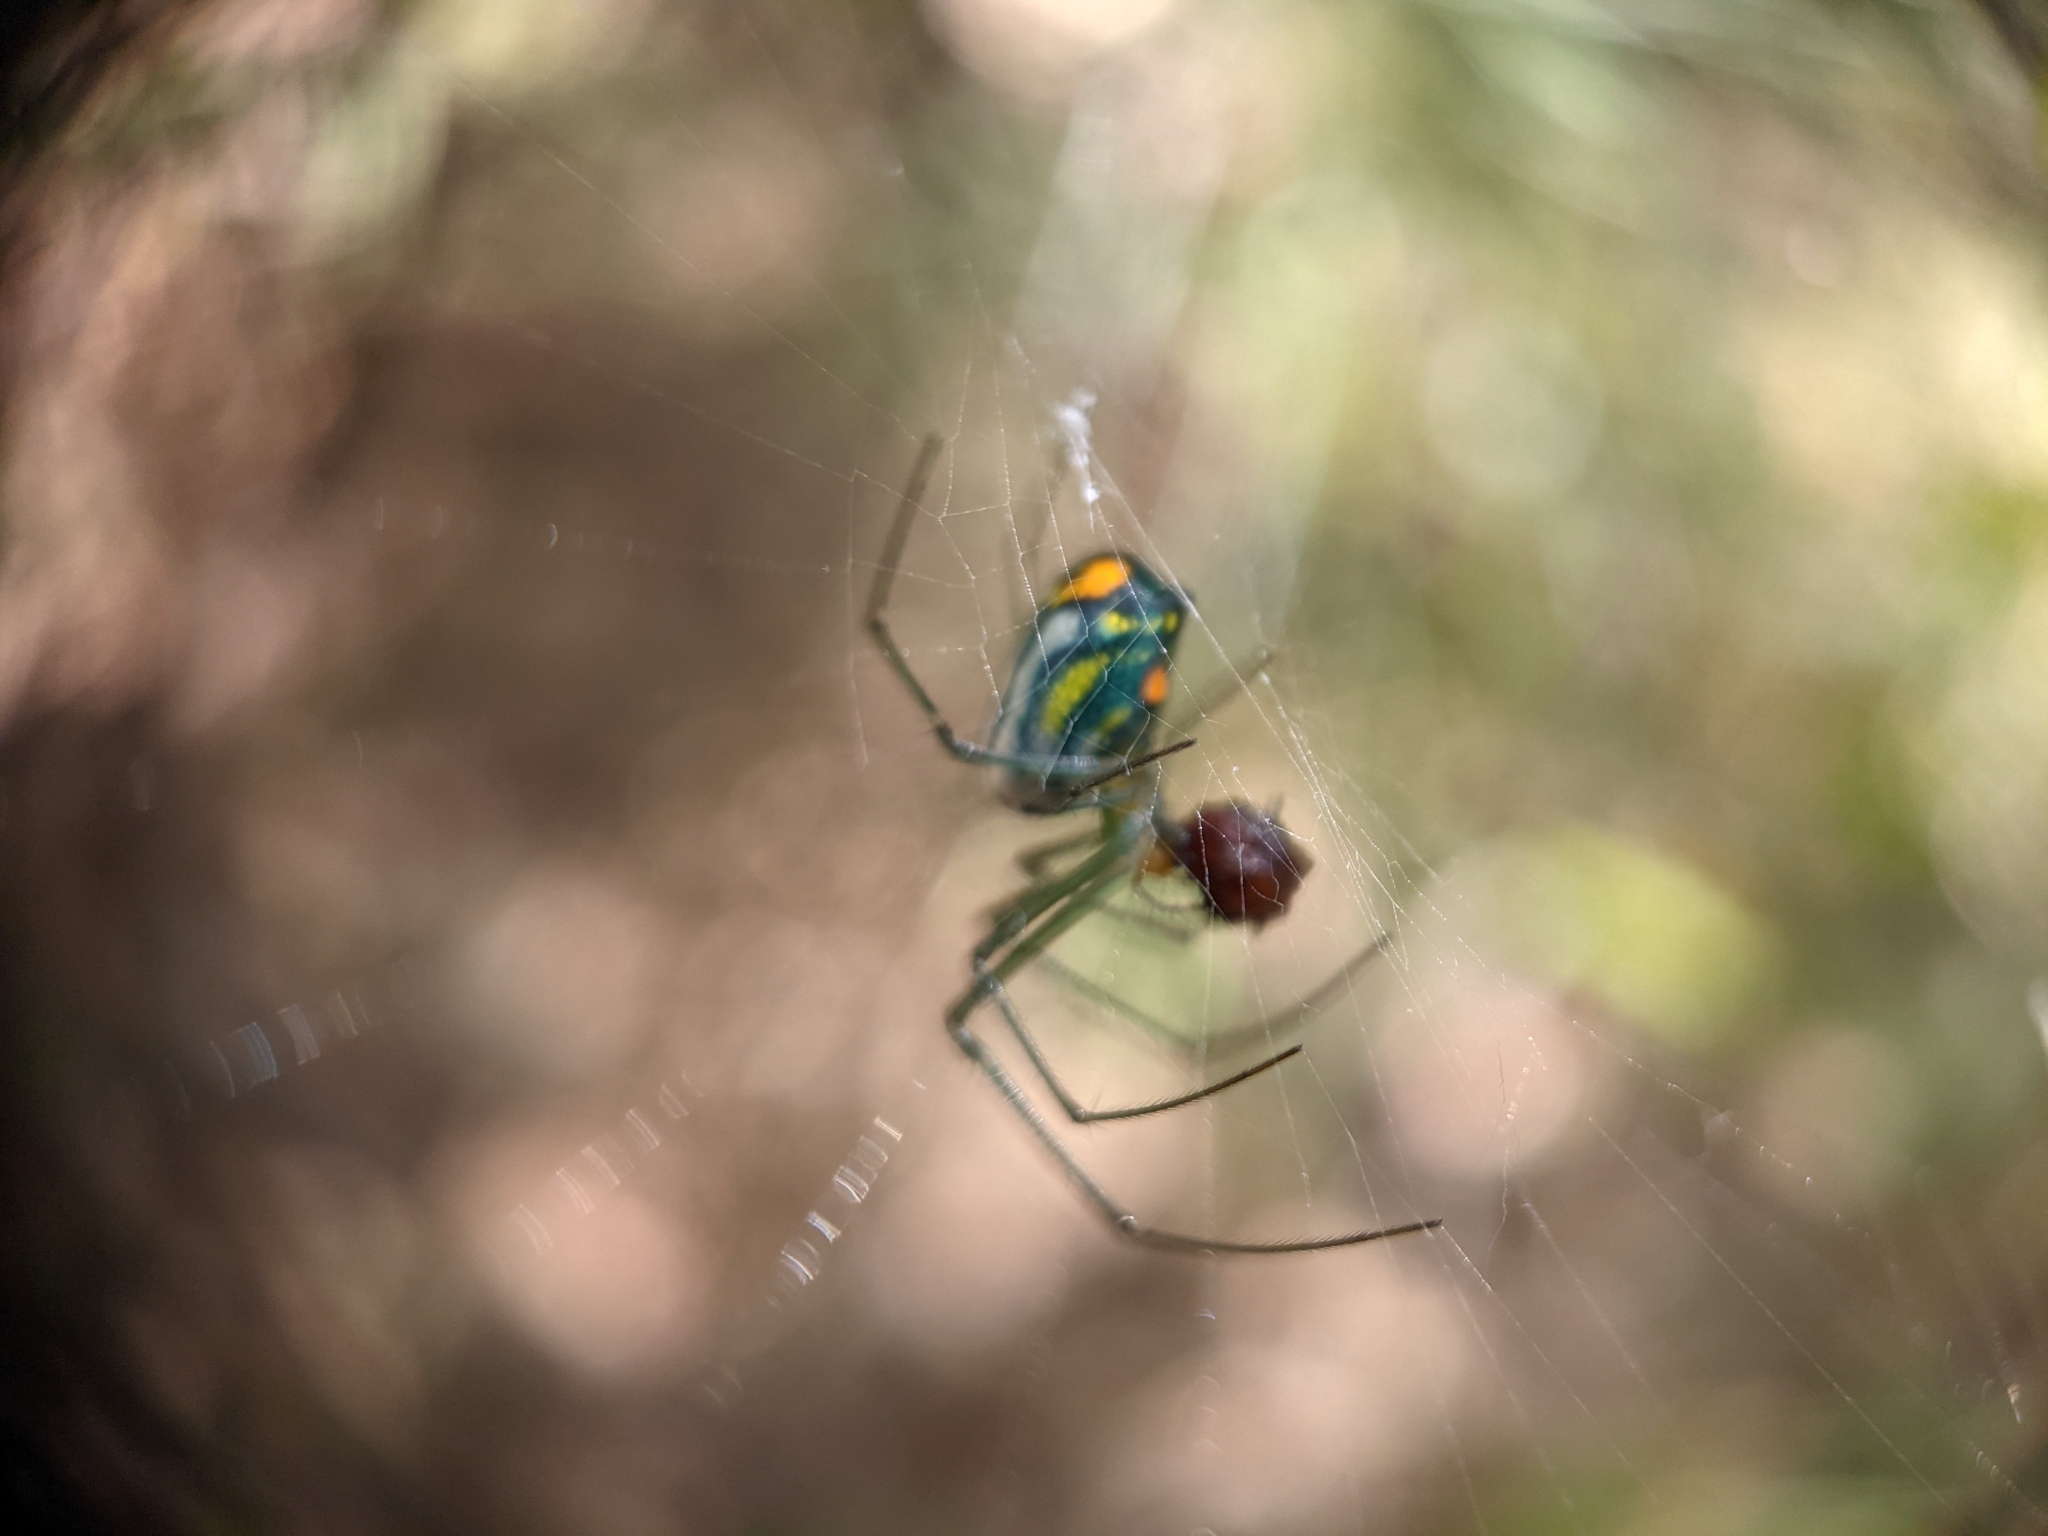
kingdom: Animalia
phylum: Arthropoda
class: Arachnida
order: Araneae
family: Tetragnathidae
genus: Leucauge
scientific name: Leucauge argyrobapta
